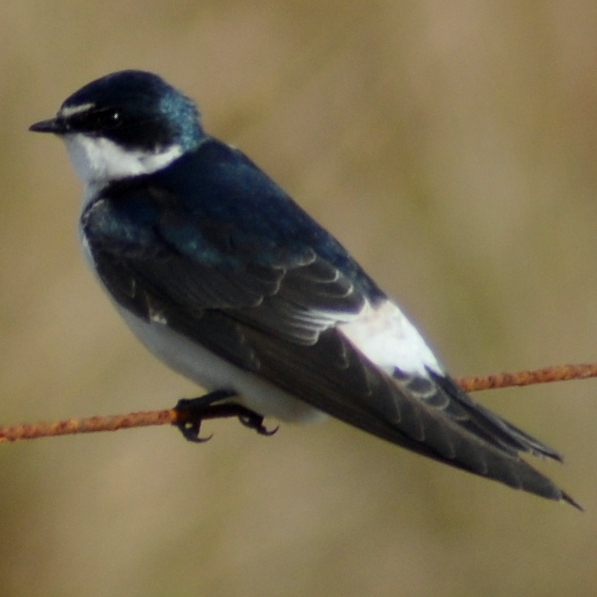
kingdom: Animalia
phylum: Chordata
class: Aves
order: Passeriformes
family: Hirundinidae
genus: Tachycineta
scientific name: Tachycineta leucorrhoa
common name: White-rumped swallow
